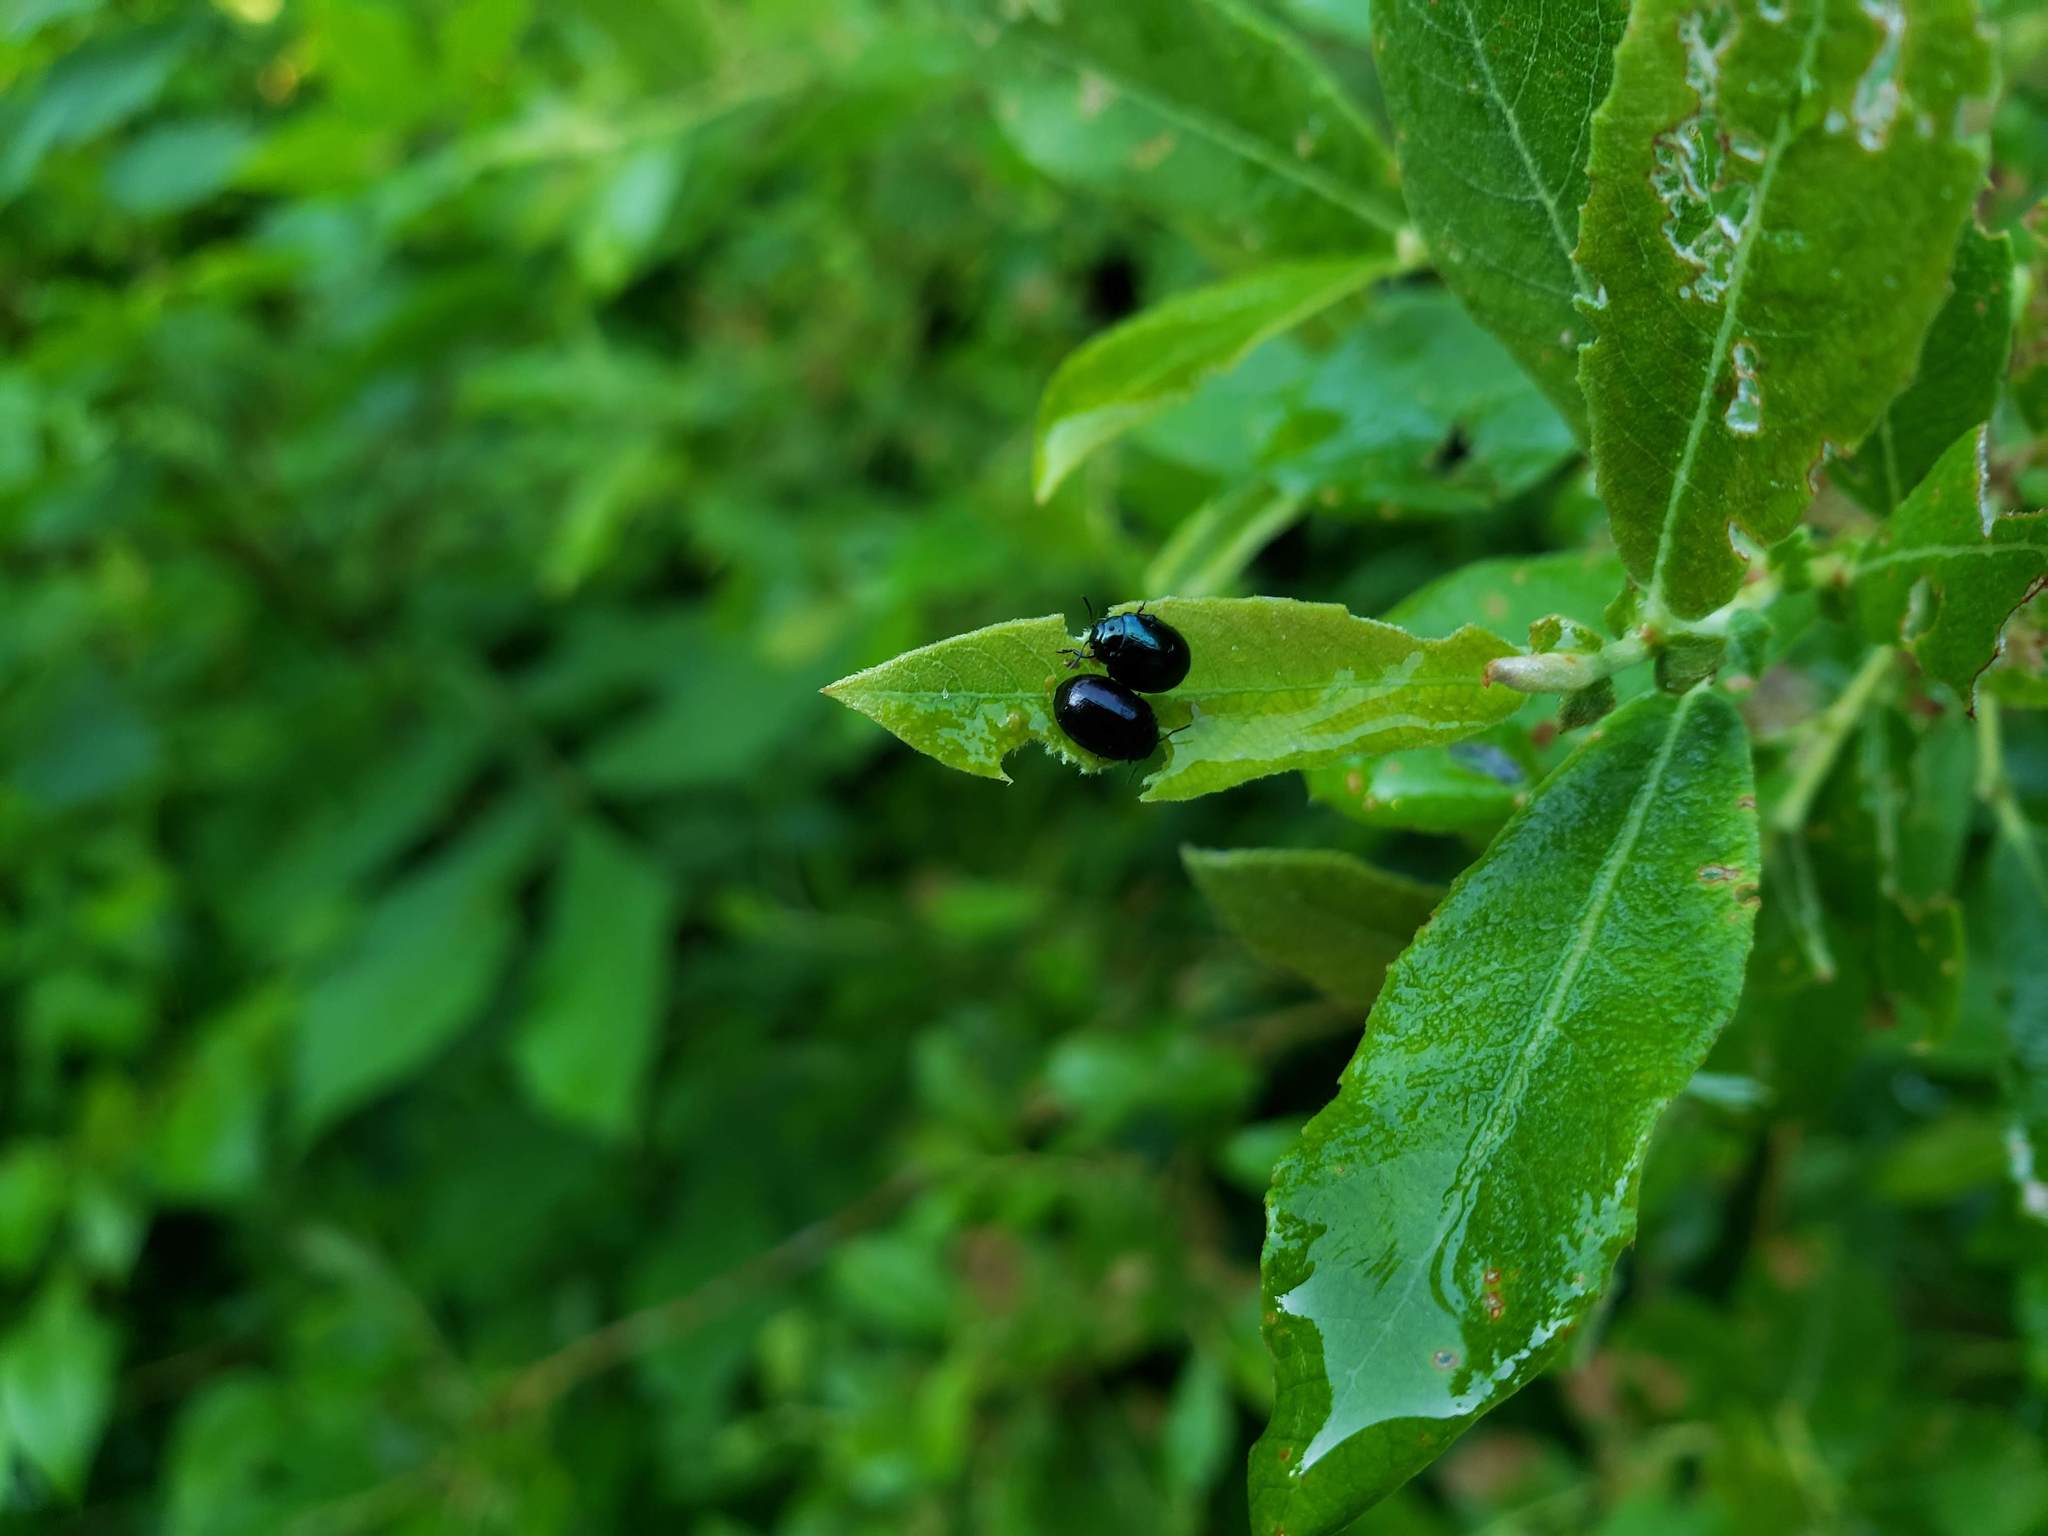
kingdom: Animalia
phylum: Arthropoda
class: Insecta
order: Coleoptera
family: Chrysomelidae
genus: Plagiodera
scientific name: Plagiodera versicolora
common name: Imported willow leaf beetle
